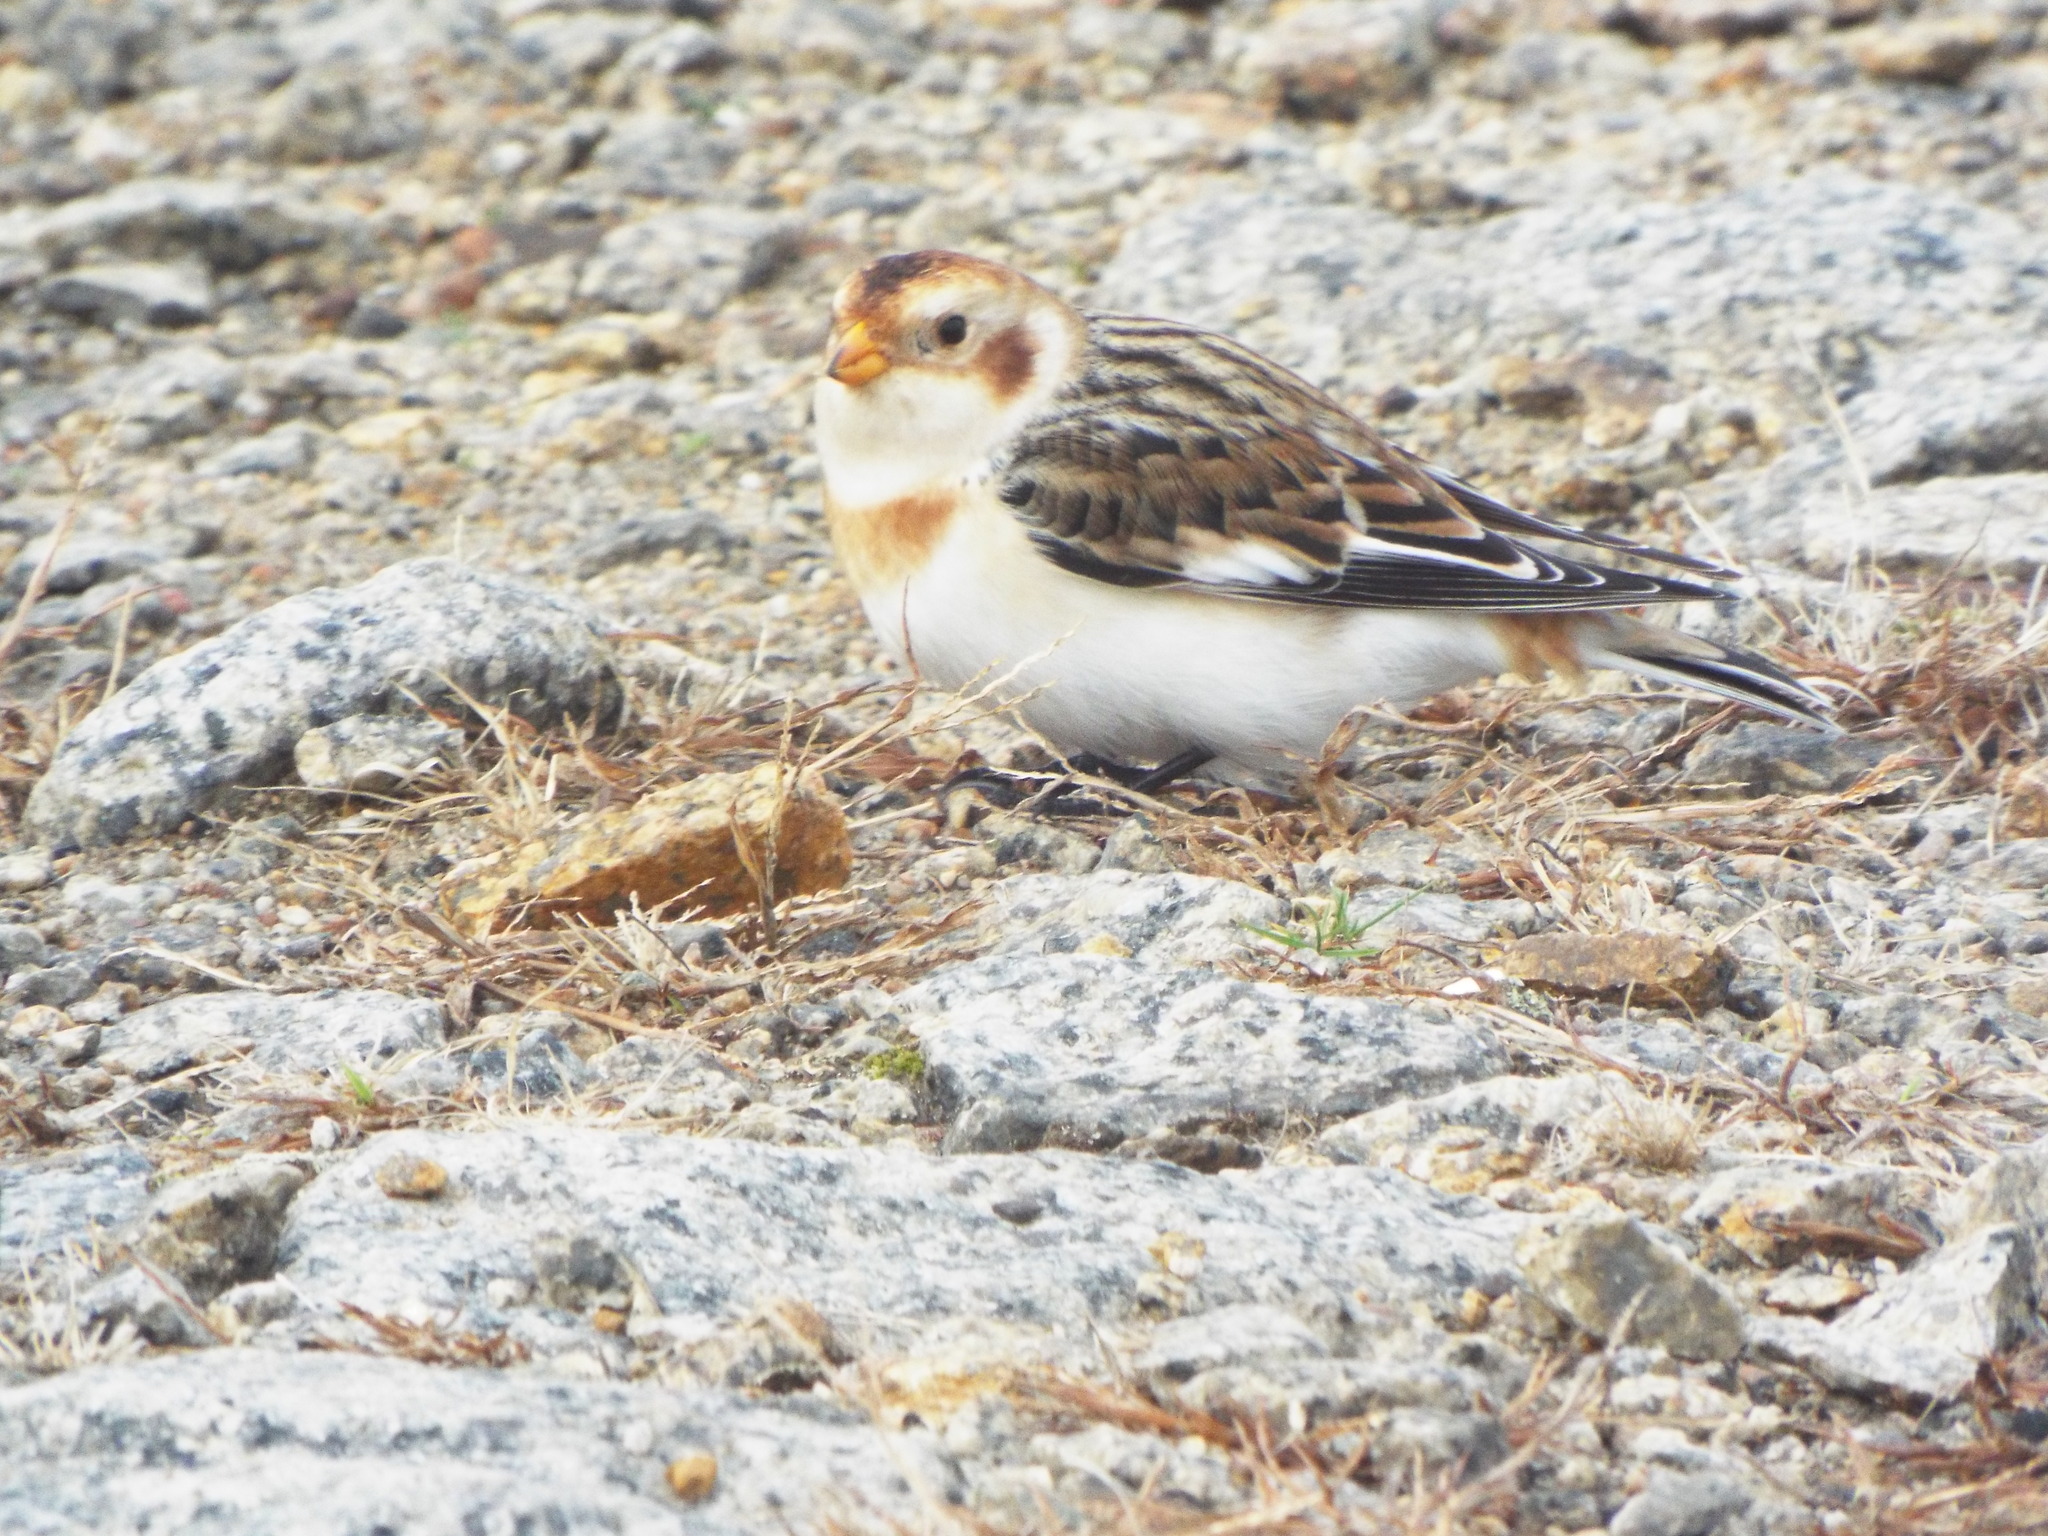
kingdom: Animalia
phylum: Chordata
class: Aves
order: Passeriformes
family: Calcariidae
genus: Plectrophenax
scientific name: Plectrophenax nivalis
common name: Snow bunting
